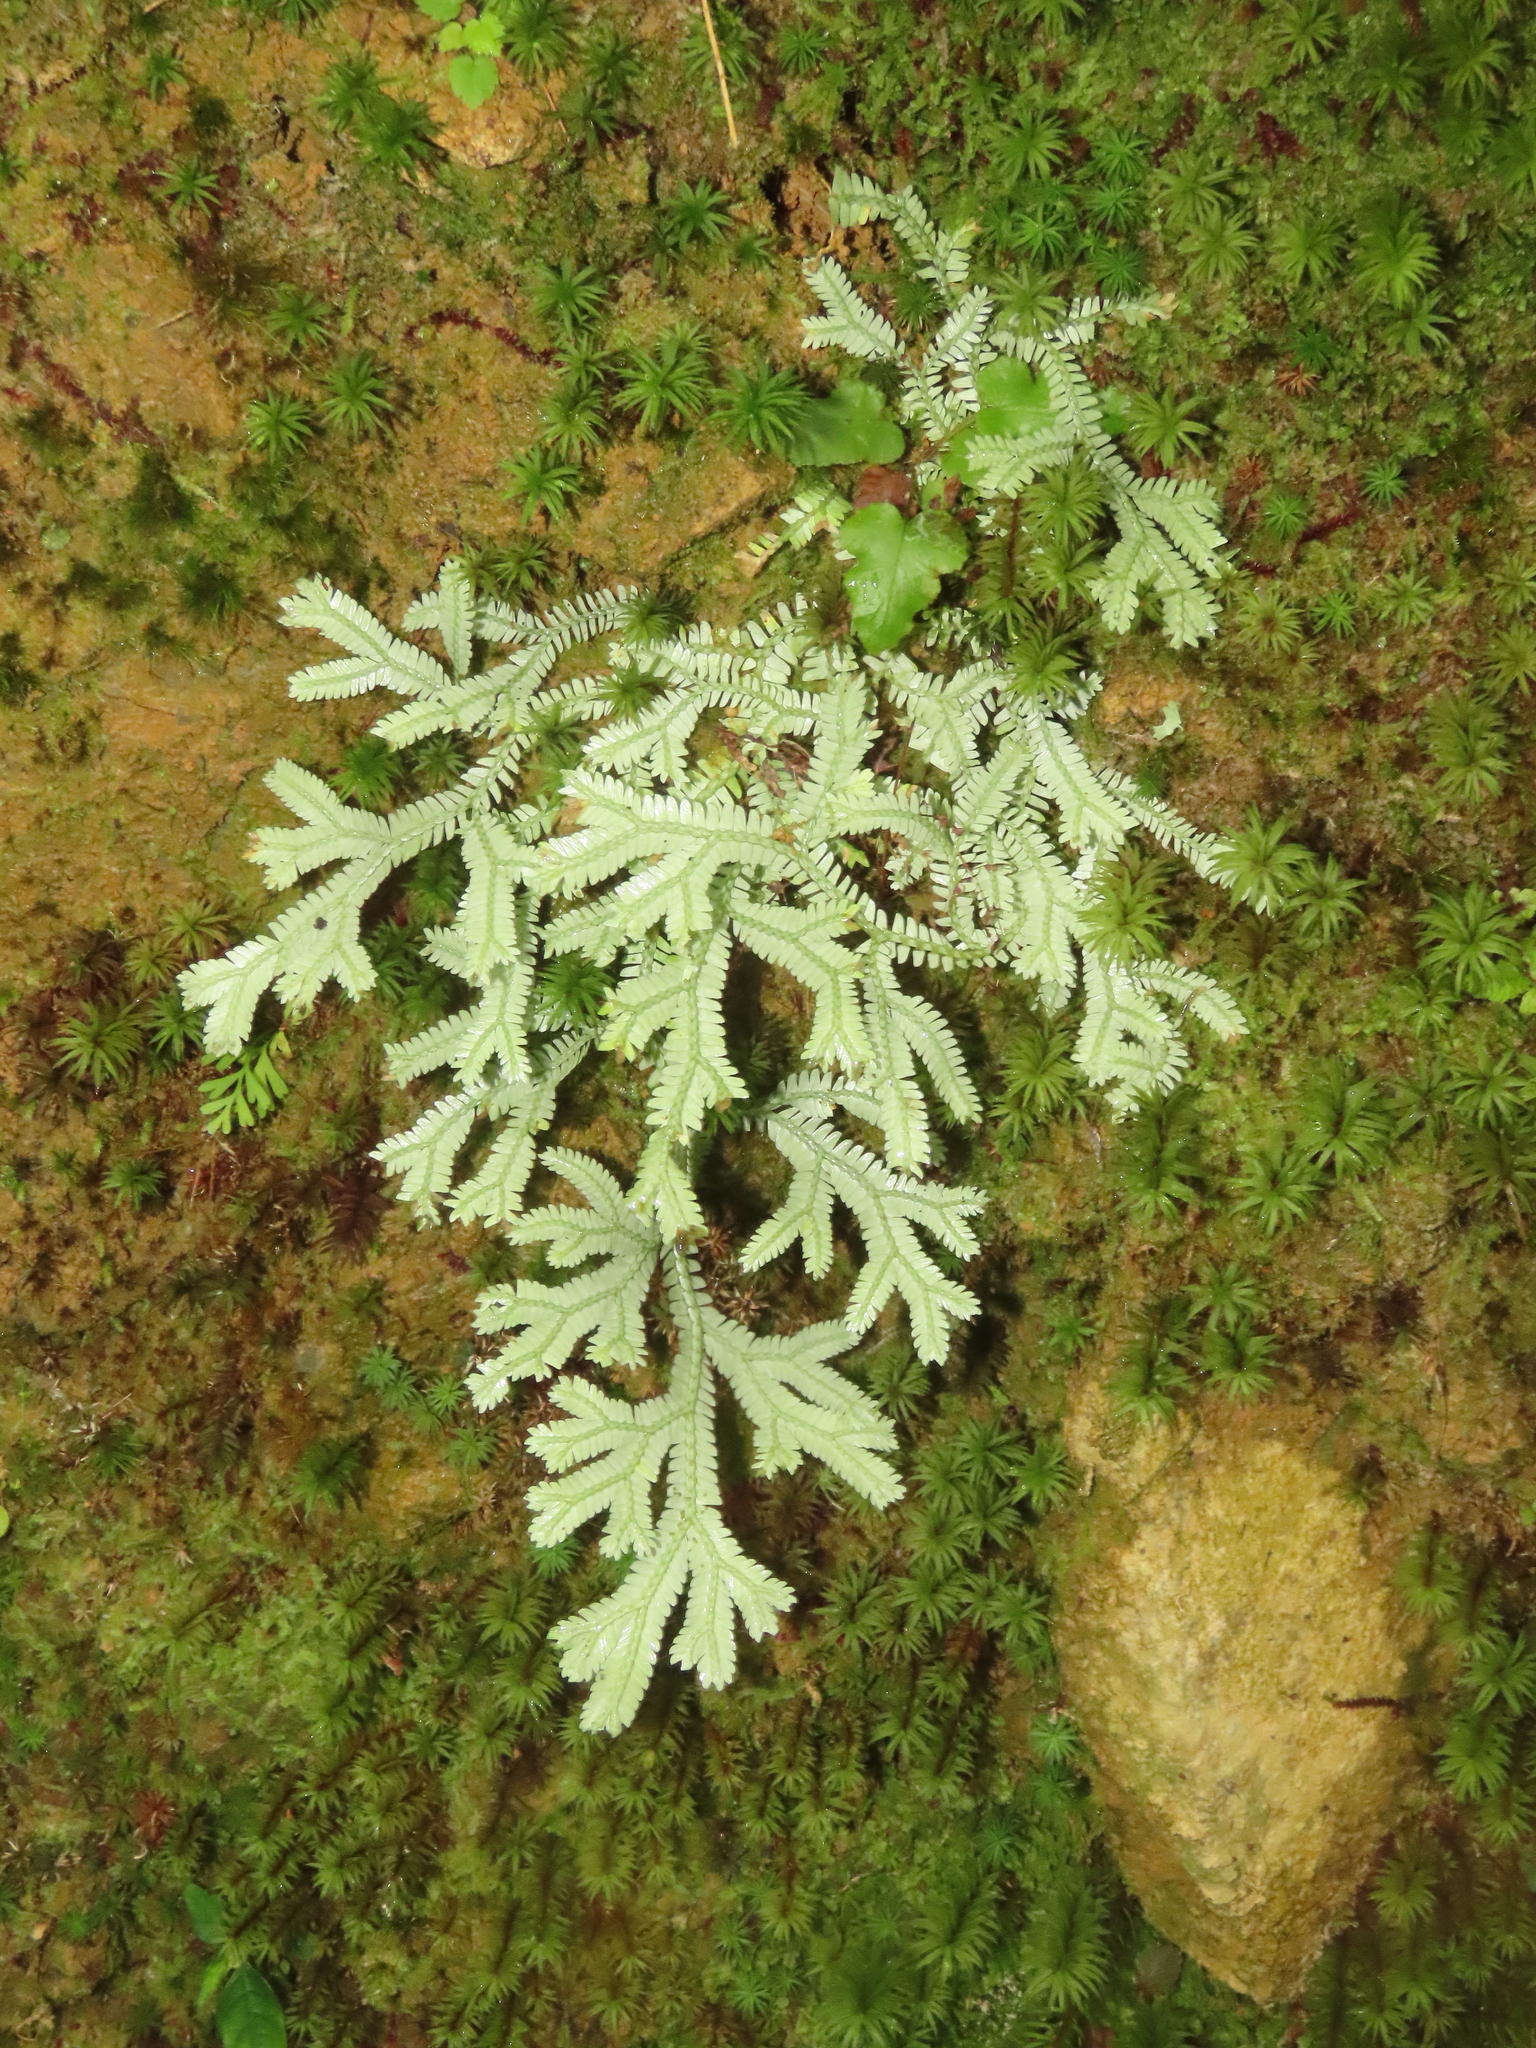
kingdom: Plantae
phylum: Tracheophyta
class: Lycopodiopsida
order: Selaginellales
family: Selaginellaceae
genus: Selaginella
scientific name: Selaginella doederleinii
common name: Greater selaginella
